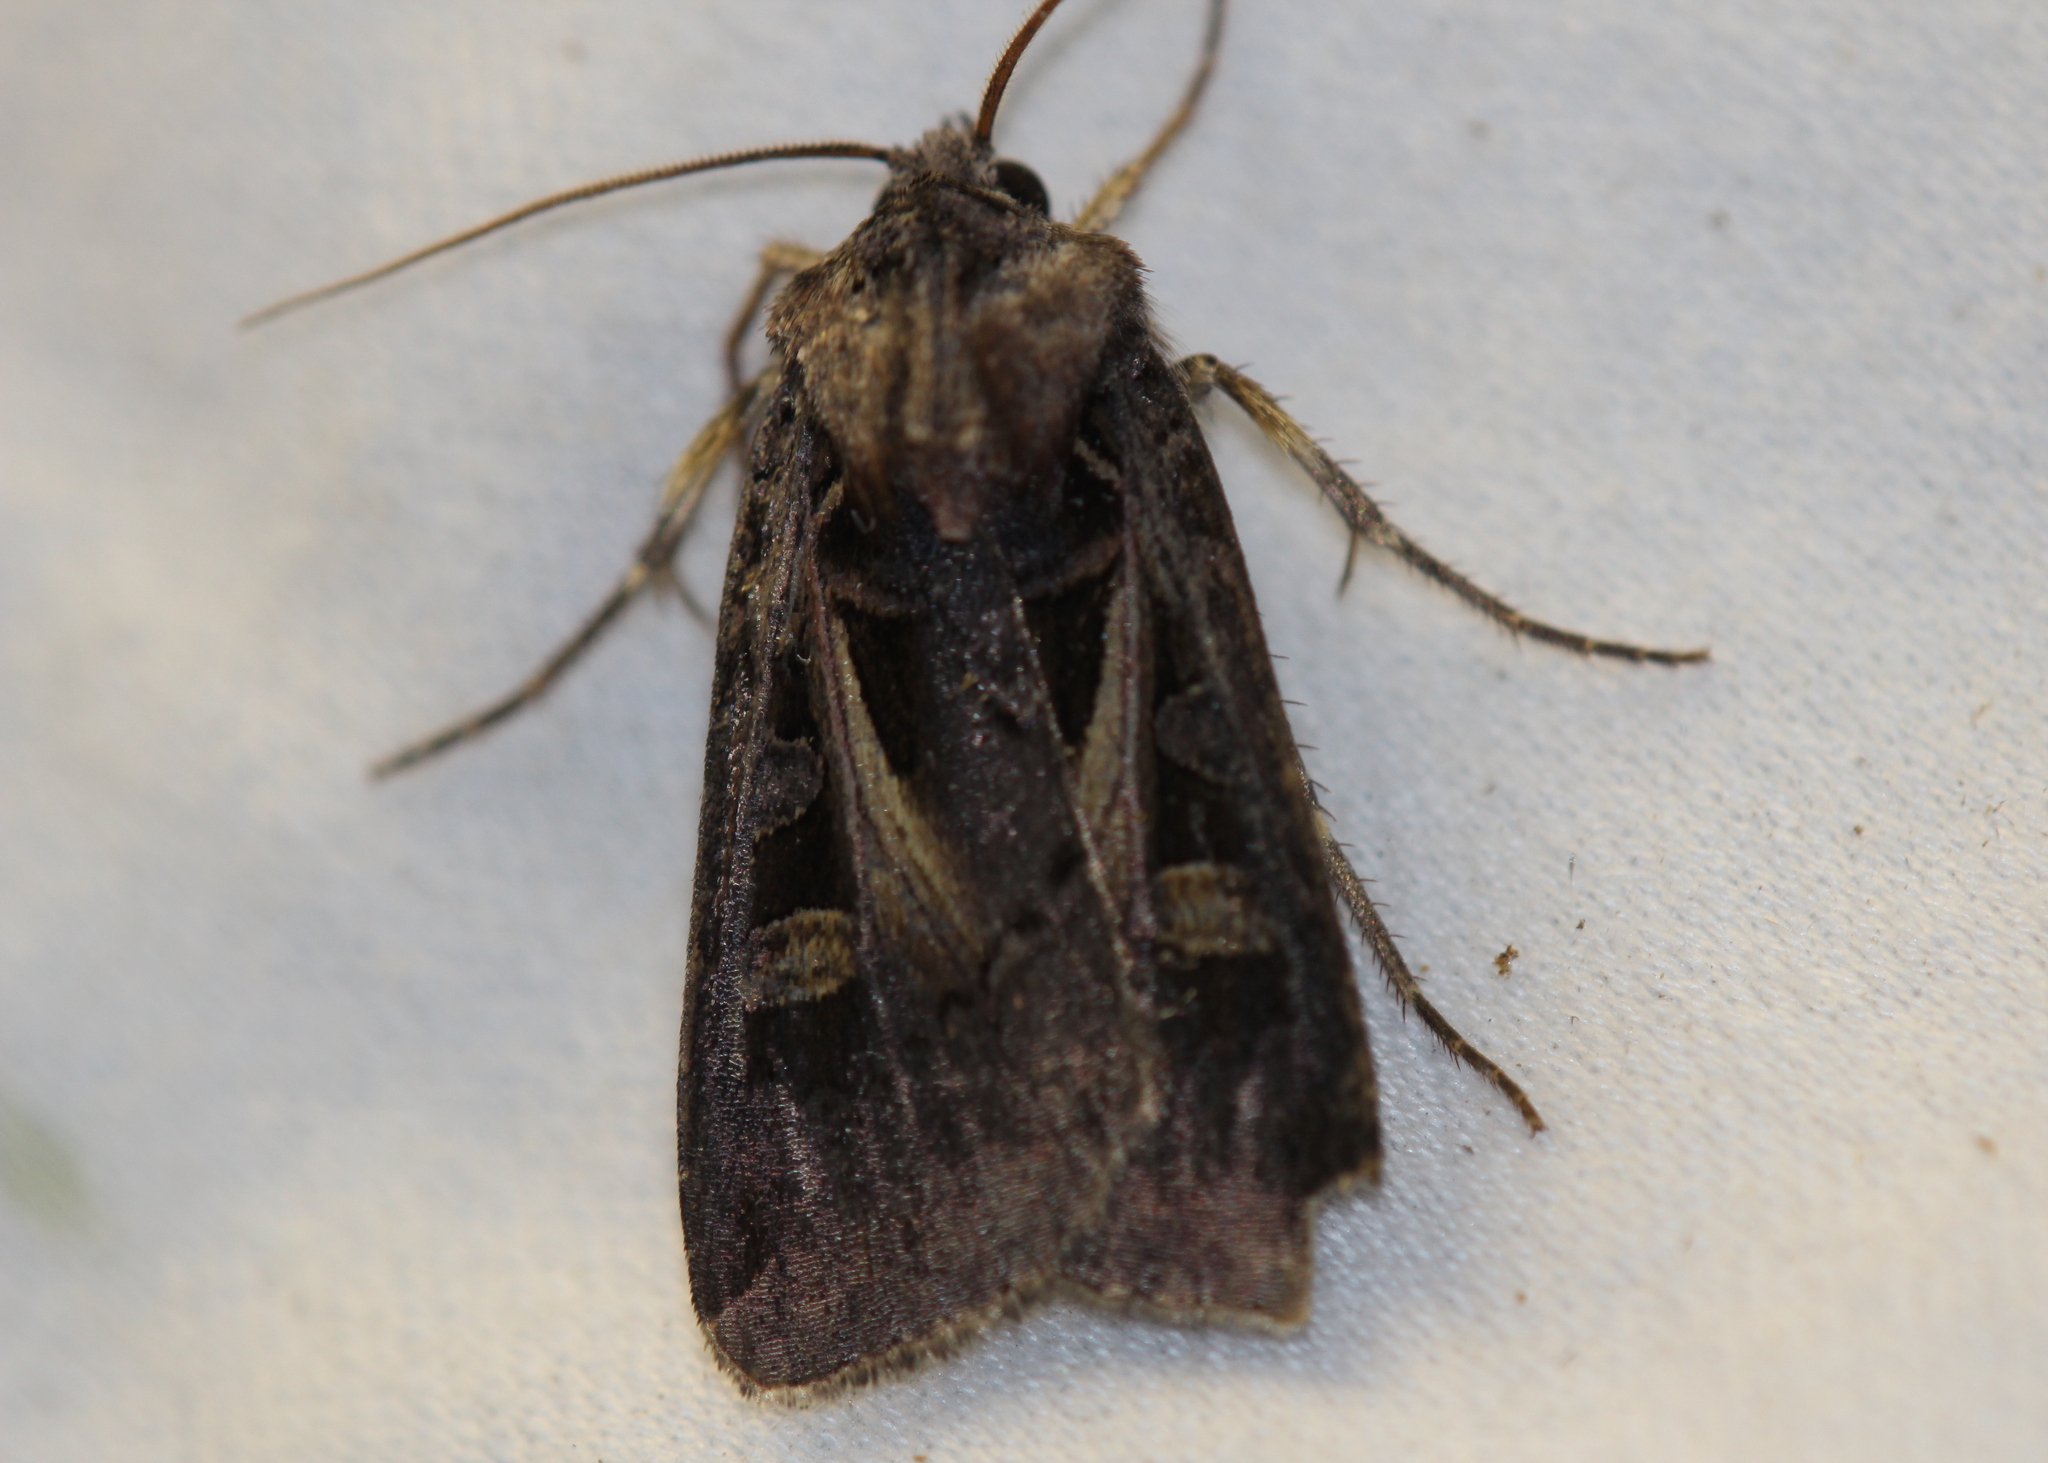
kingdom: Animalia
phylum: Arthropoda
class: Insecta
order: Lepidoptera
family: Noctuidae
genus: Feltia
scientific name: Feltia herilis
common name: Master's dart
